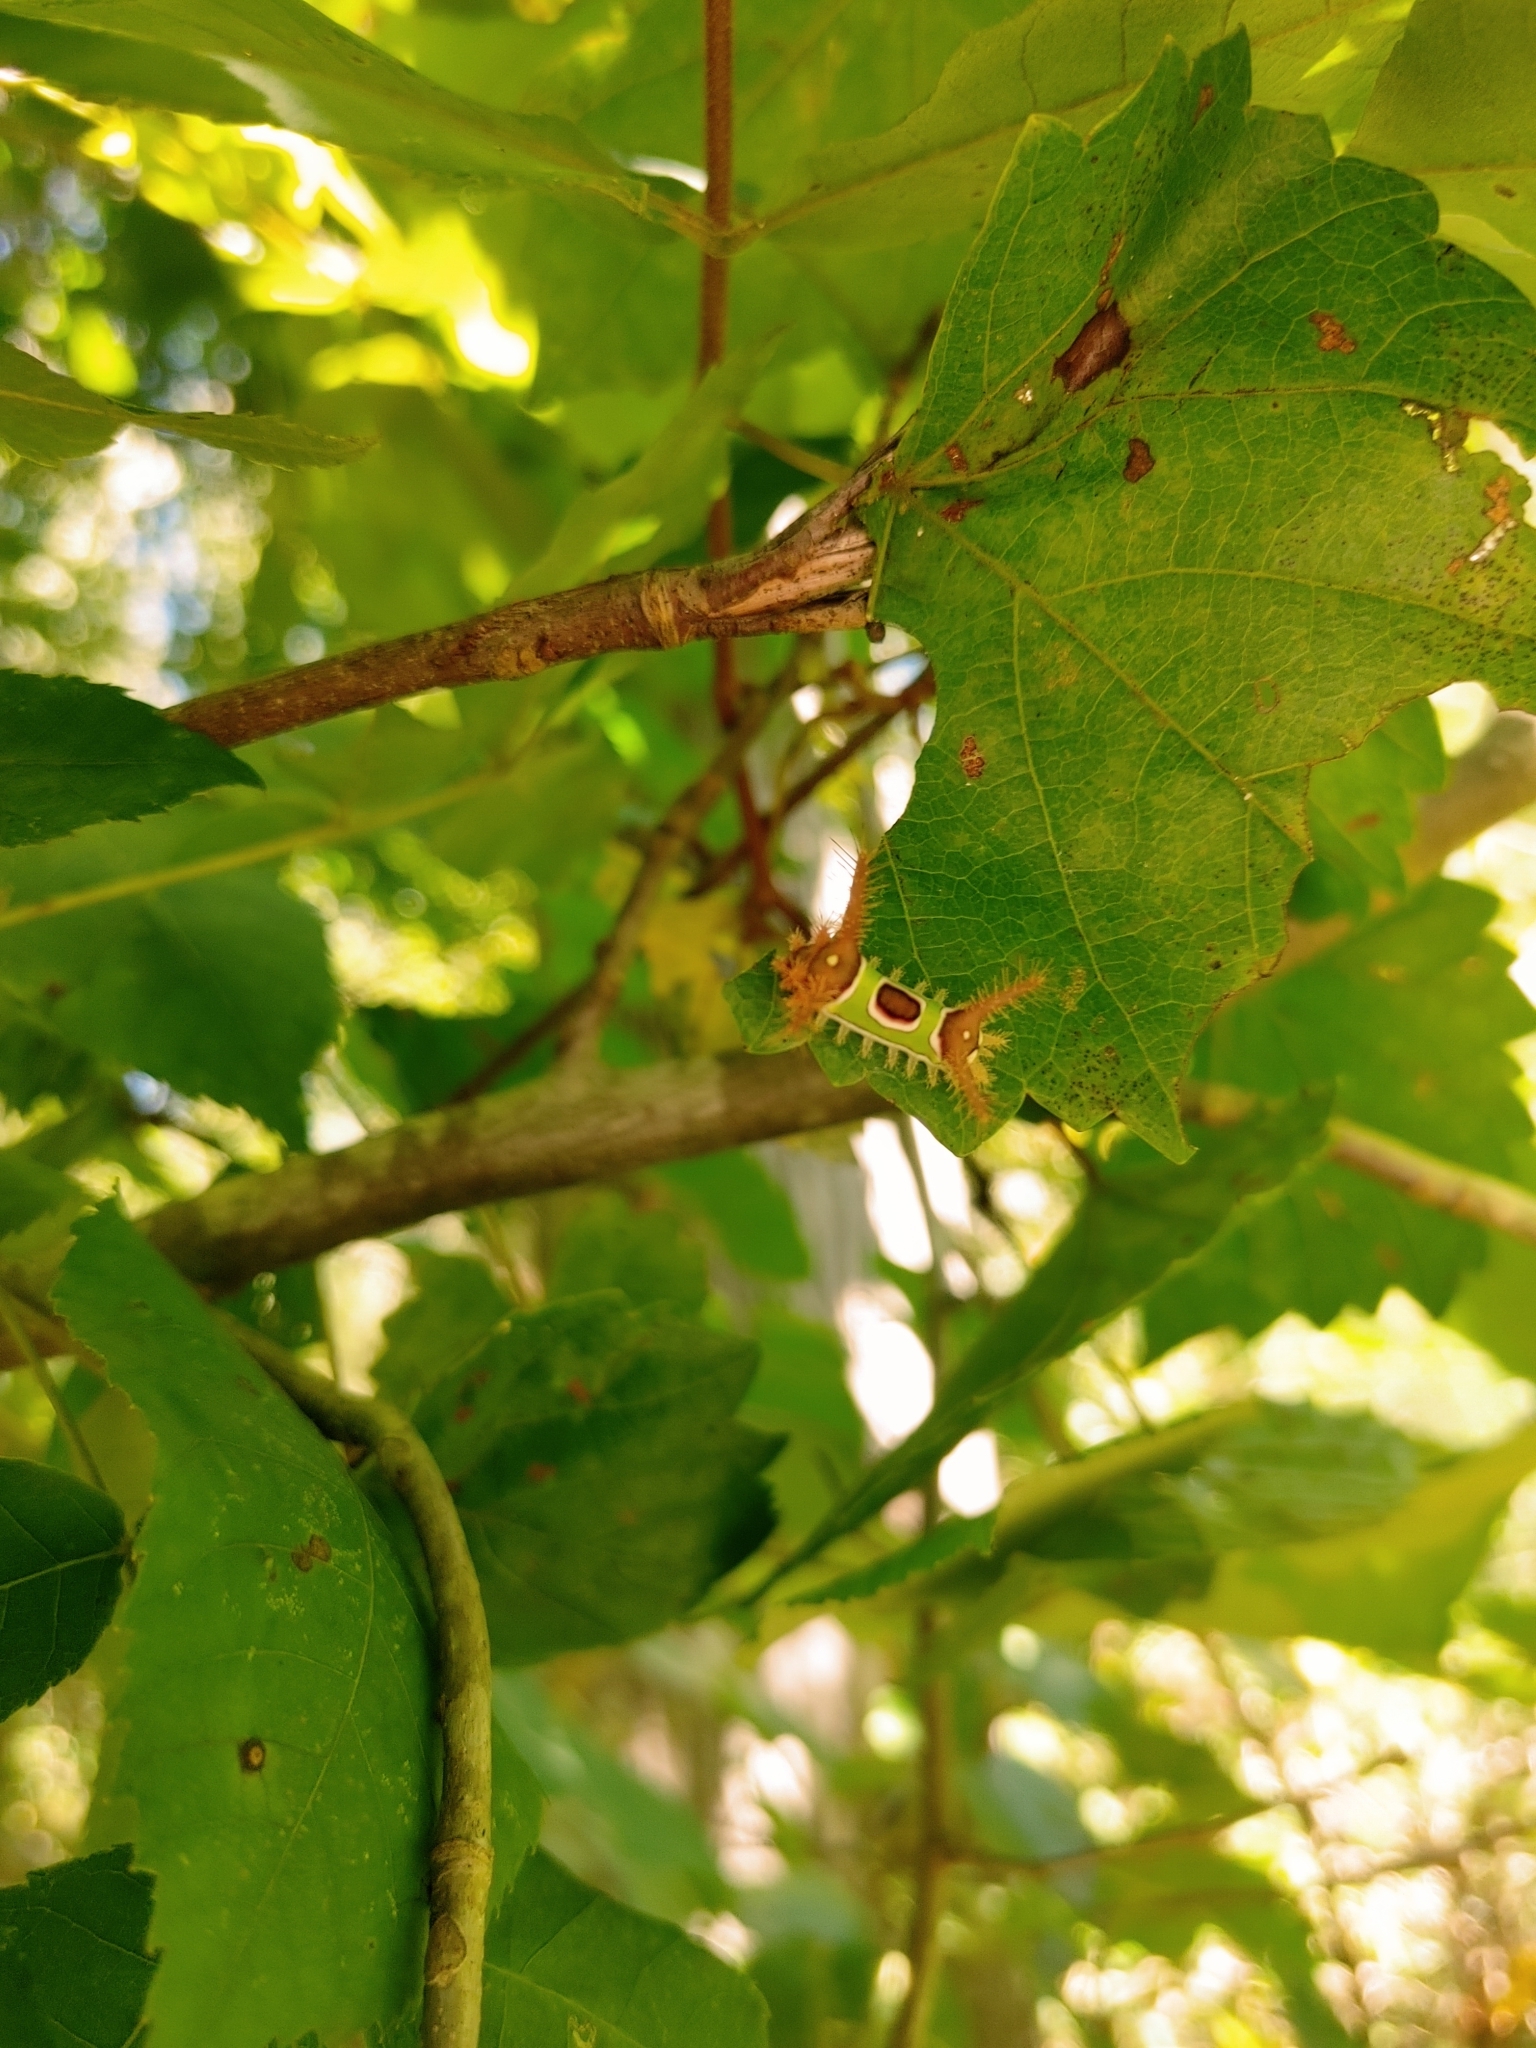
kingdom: Animalia
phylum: Arthropoda
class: Insecta
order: Lepidoptera
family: Limacodidae
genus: Acharia
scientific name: Acharia stimulea
